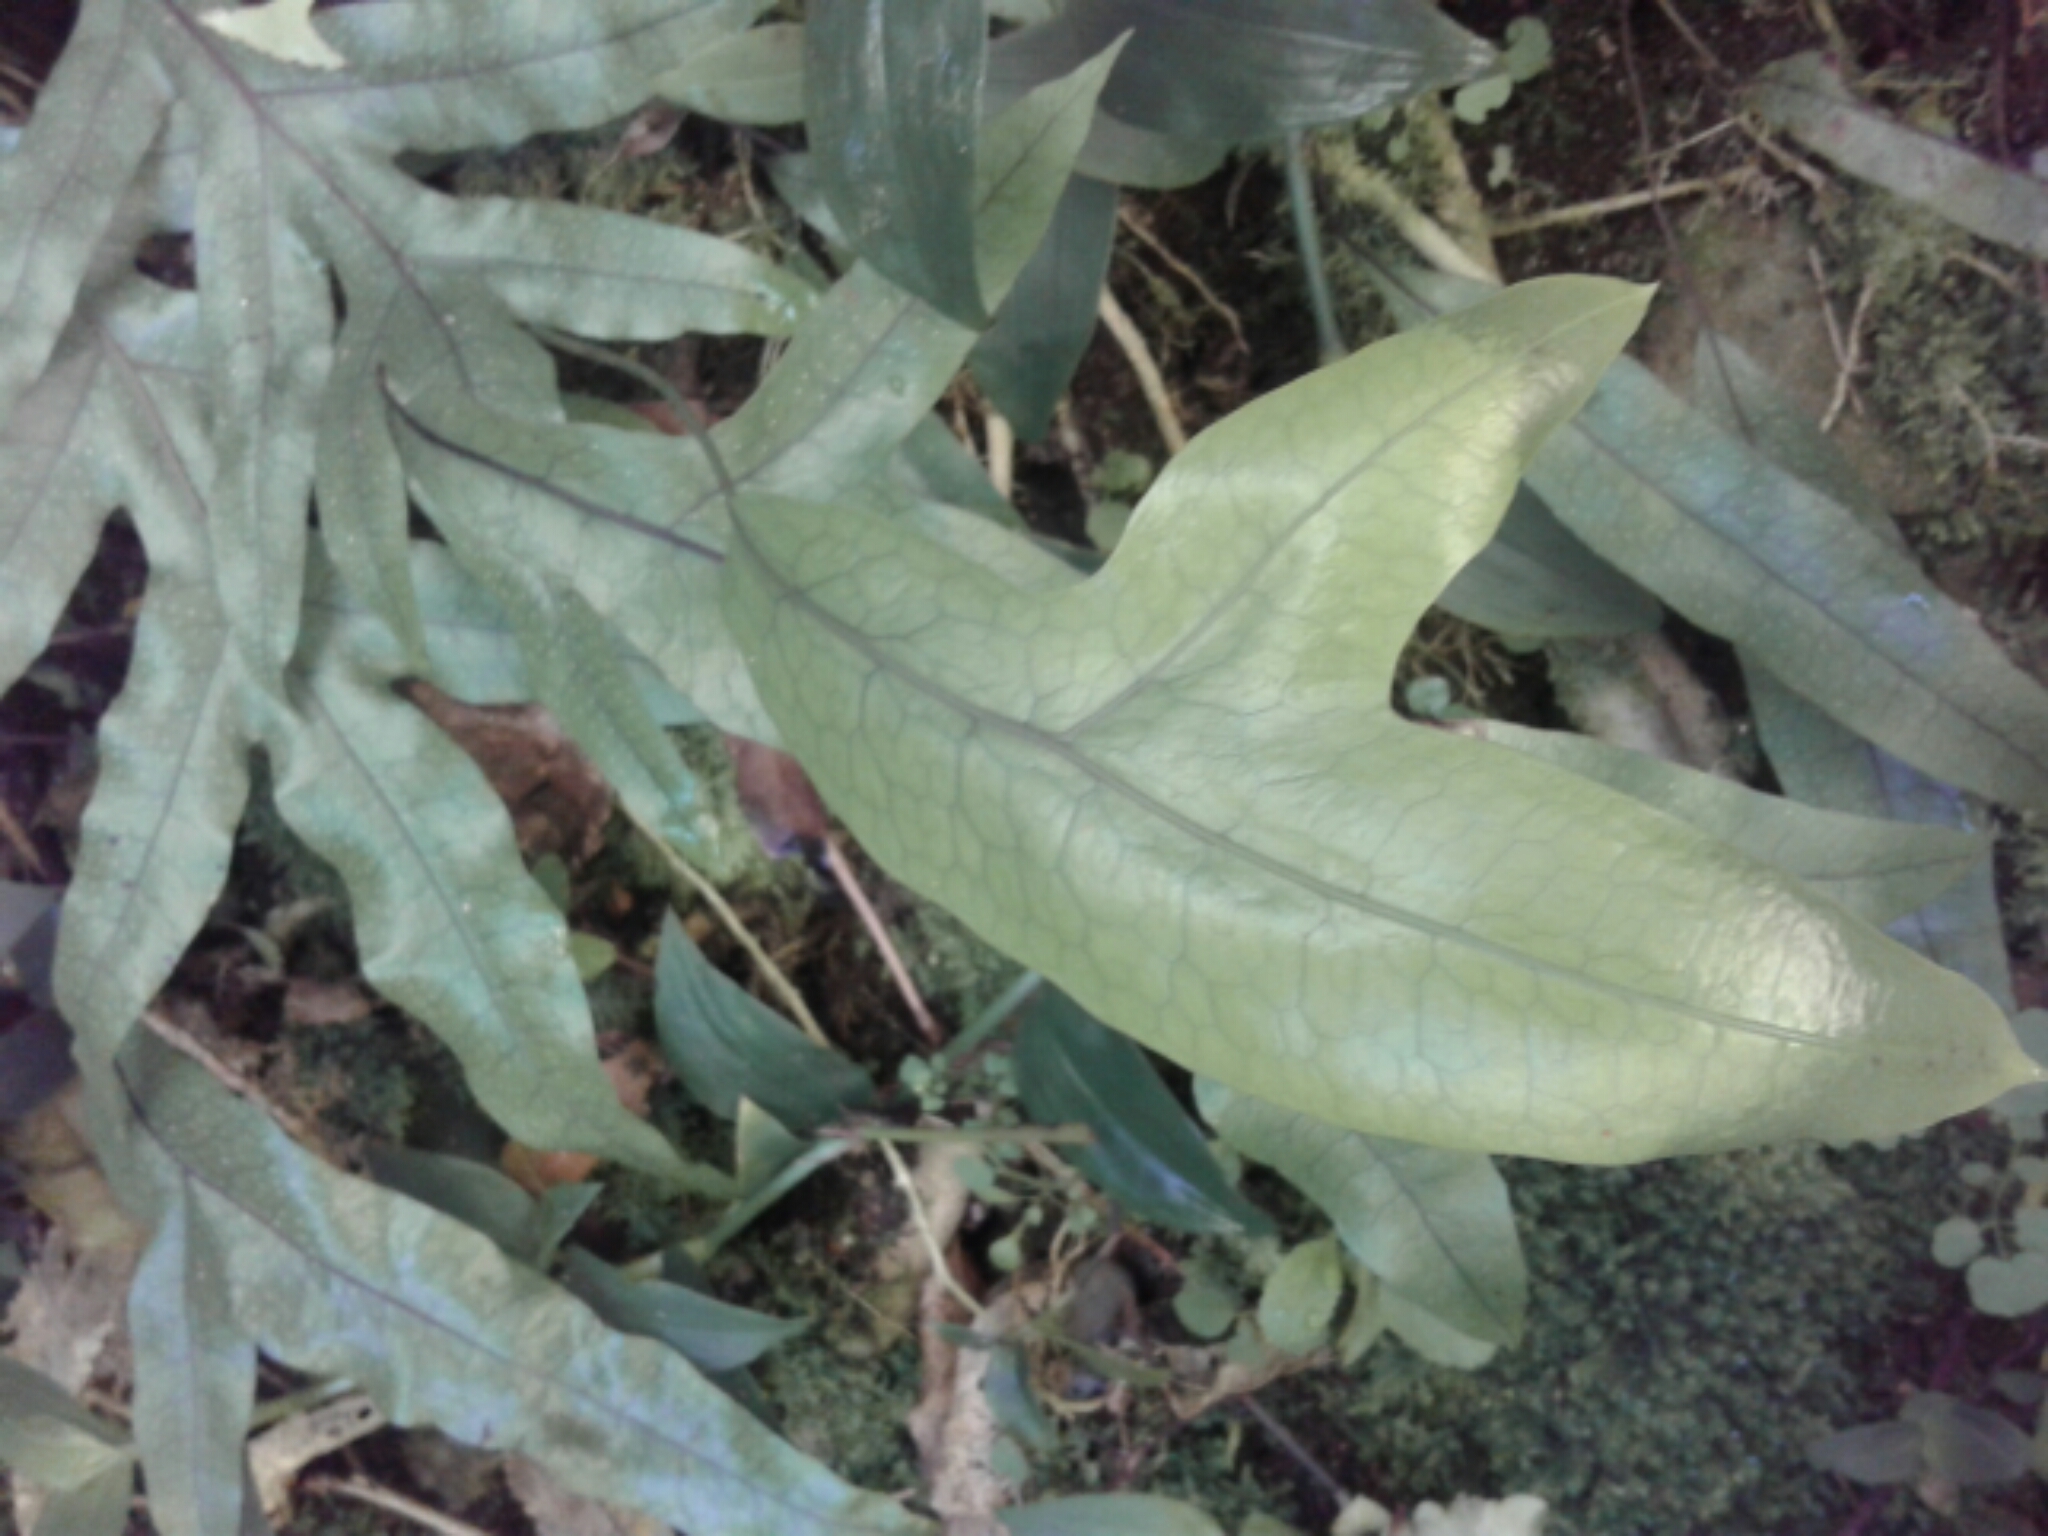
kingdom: Plantae
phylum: Tracheophyta
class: Polypodiopsida
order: Polypodiales
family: Polypodiaceae
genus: Lecanopteris
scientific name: Lecanopteris pustulata
